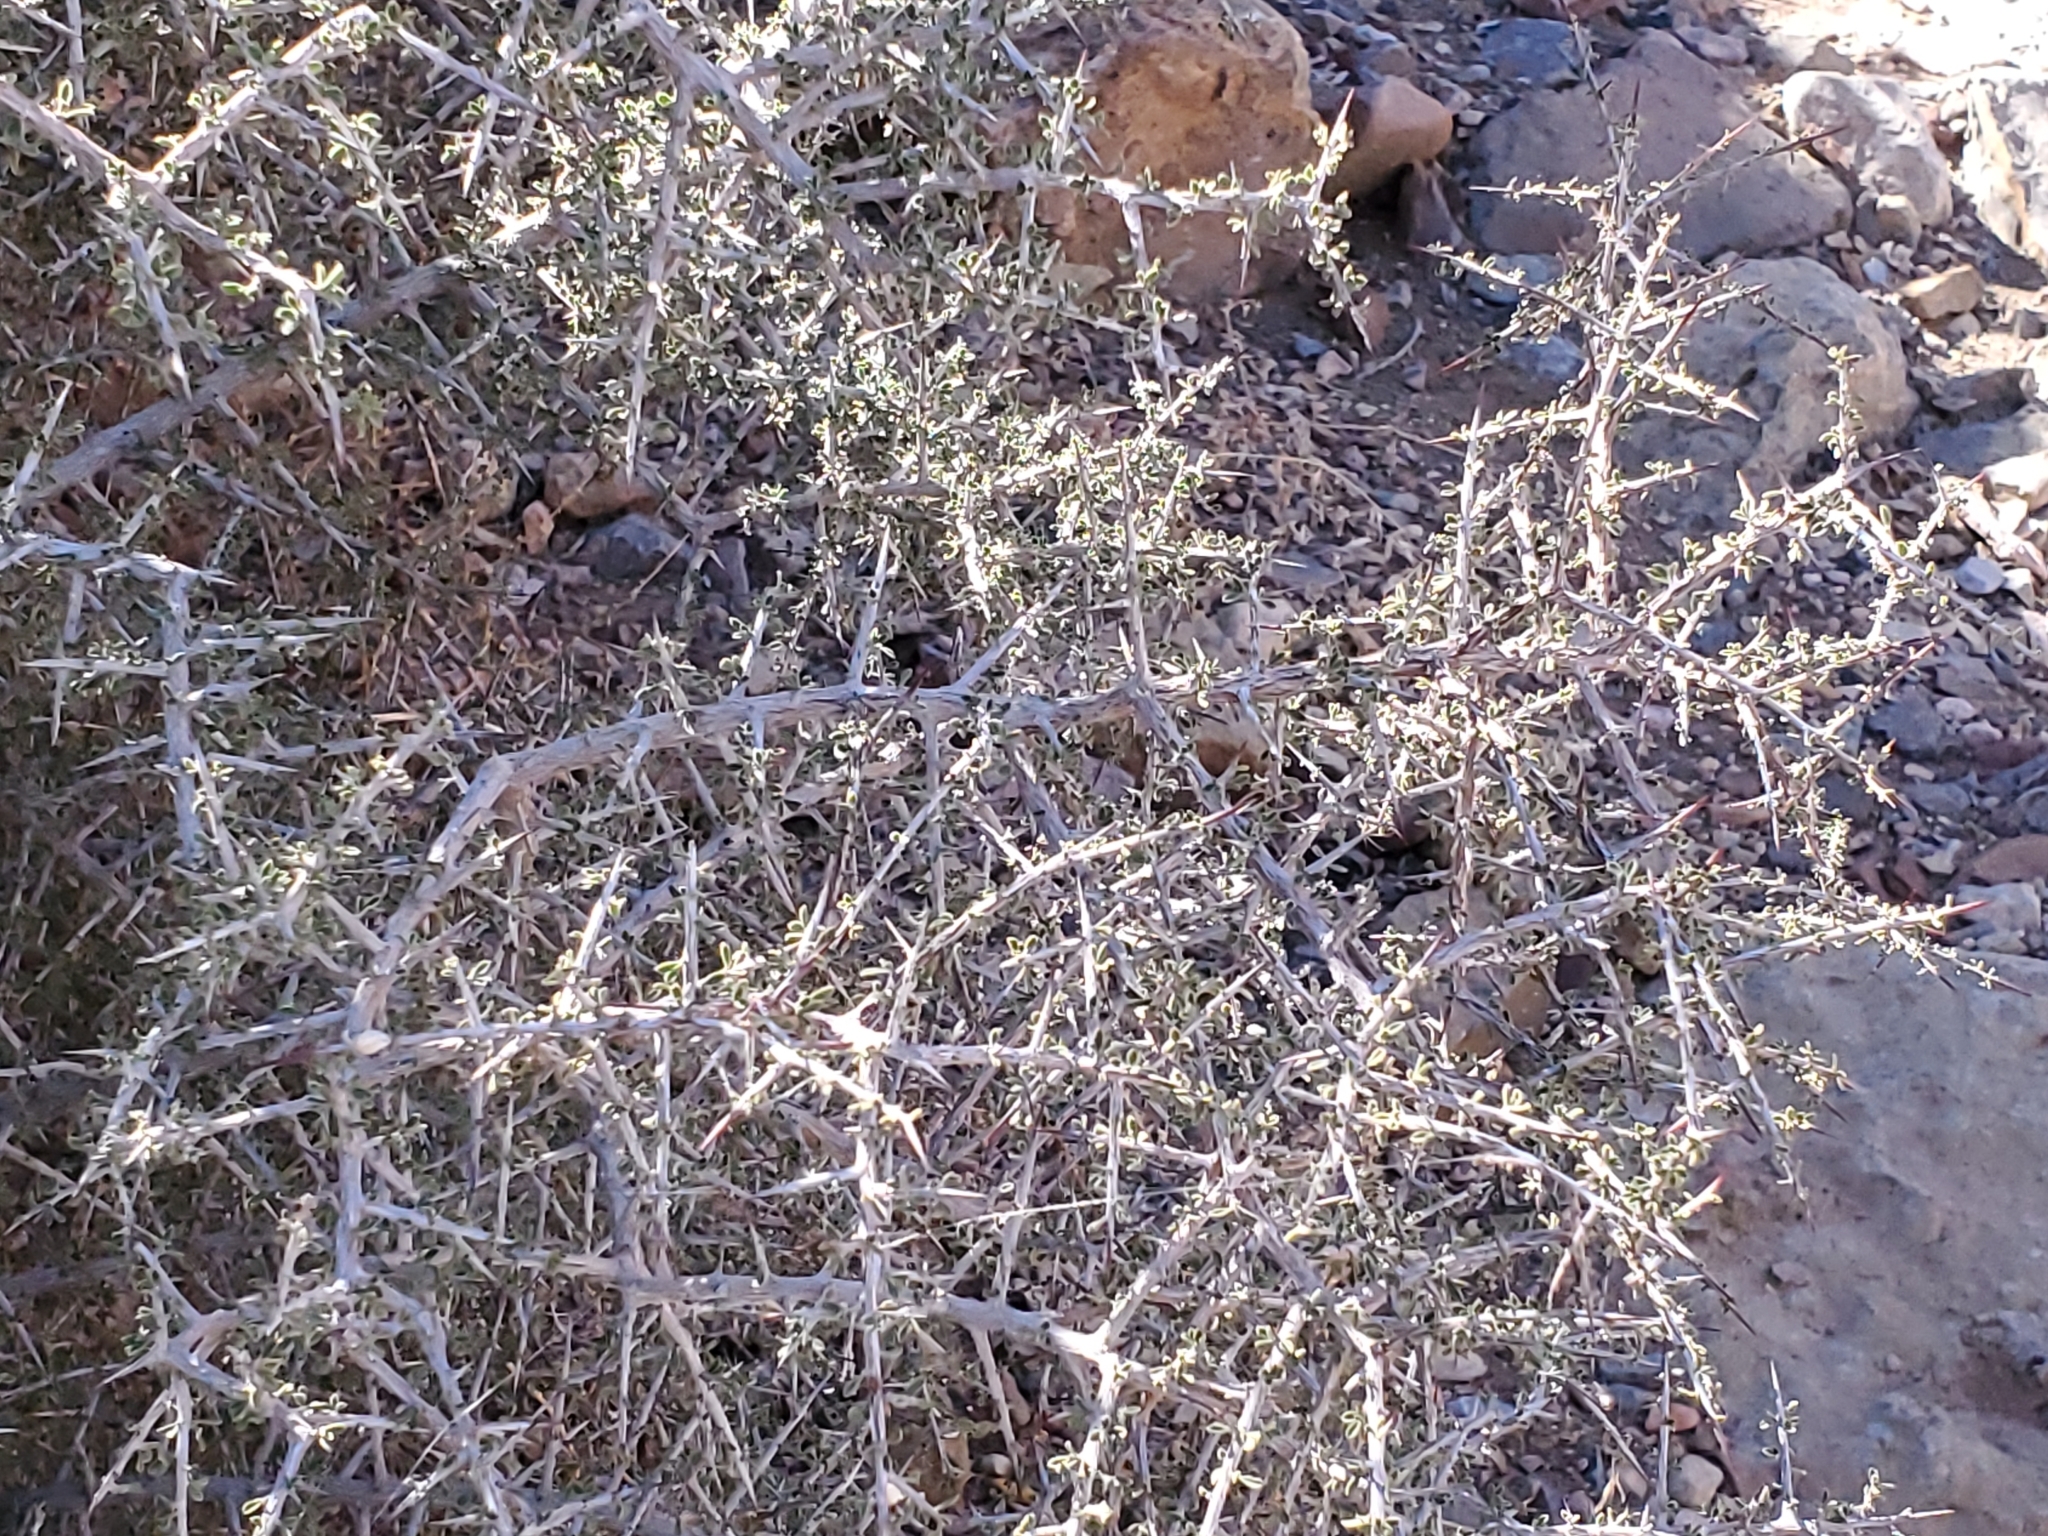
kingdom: Plantae
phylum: Tracheophyta
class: Magnoliopsida
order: Rosales
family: Rhamnaceae
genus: Condalia
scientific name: Condalia warnockii
